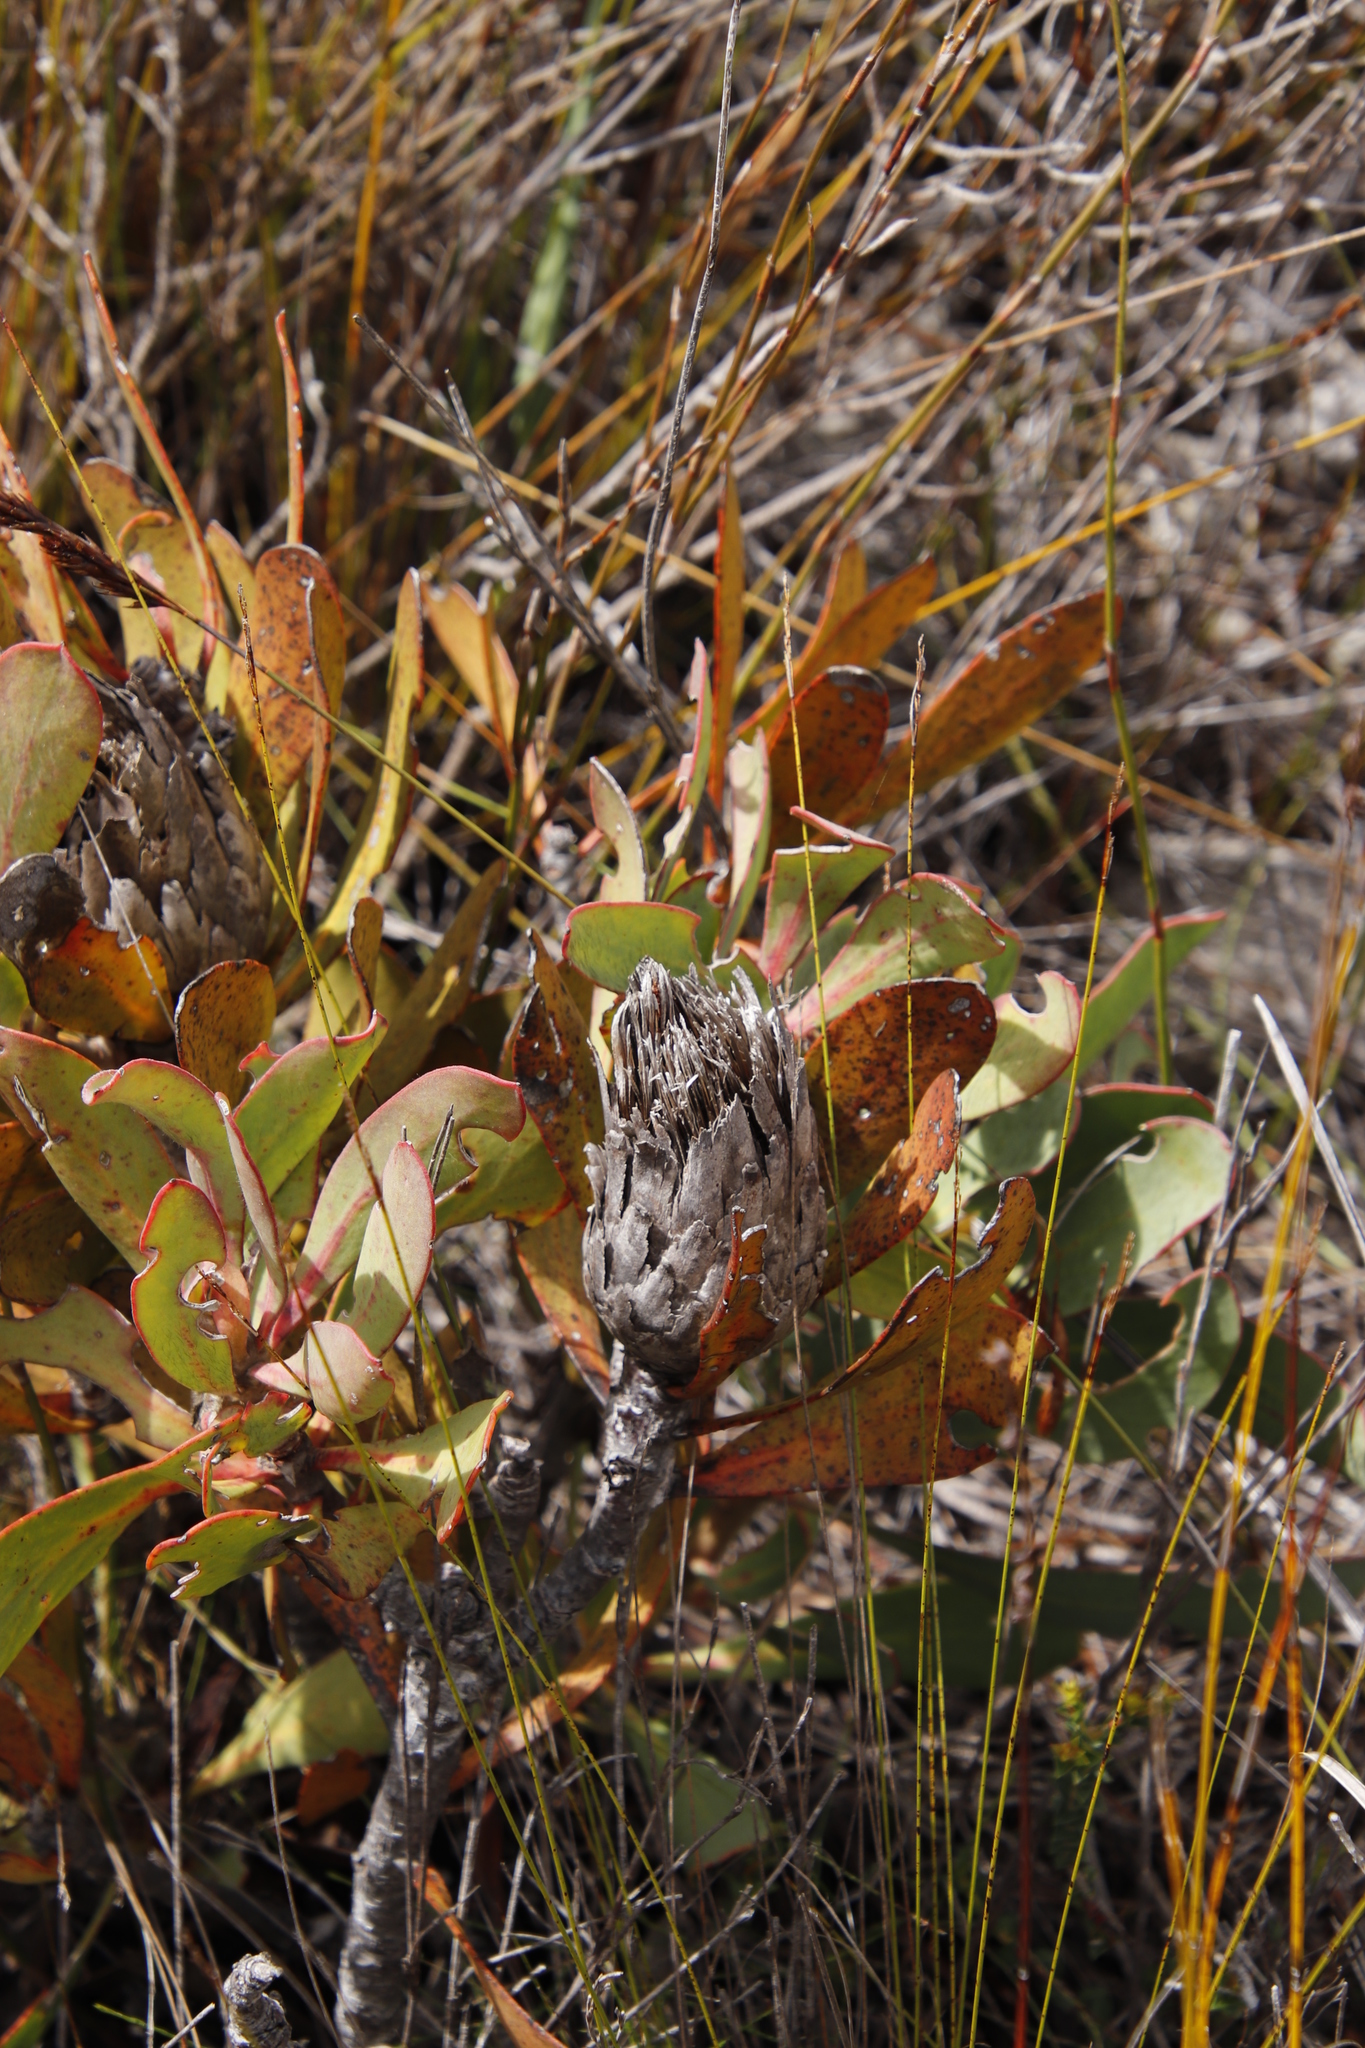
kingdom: Plantae
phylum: Tracheophyta
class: Magnoliopsida
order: Proteales
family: Proteaceae
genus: Protea
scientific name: Protea speciosa
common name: Brown-beard sugarbush
